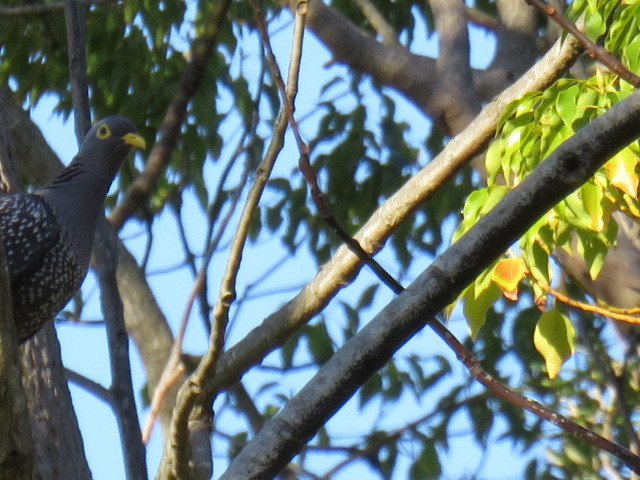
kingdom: Animalia
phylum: Chordata
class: Aves
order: Columbiformes
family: Columbidae
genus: Columba
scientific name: Columba arquatrix
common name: African olive pigeon
